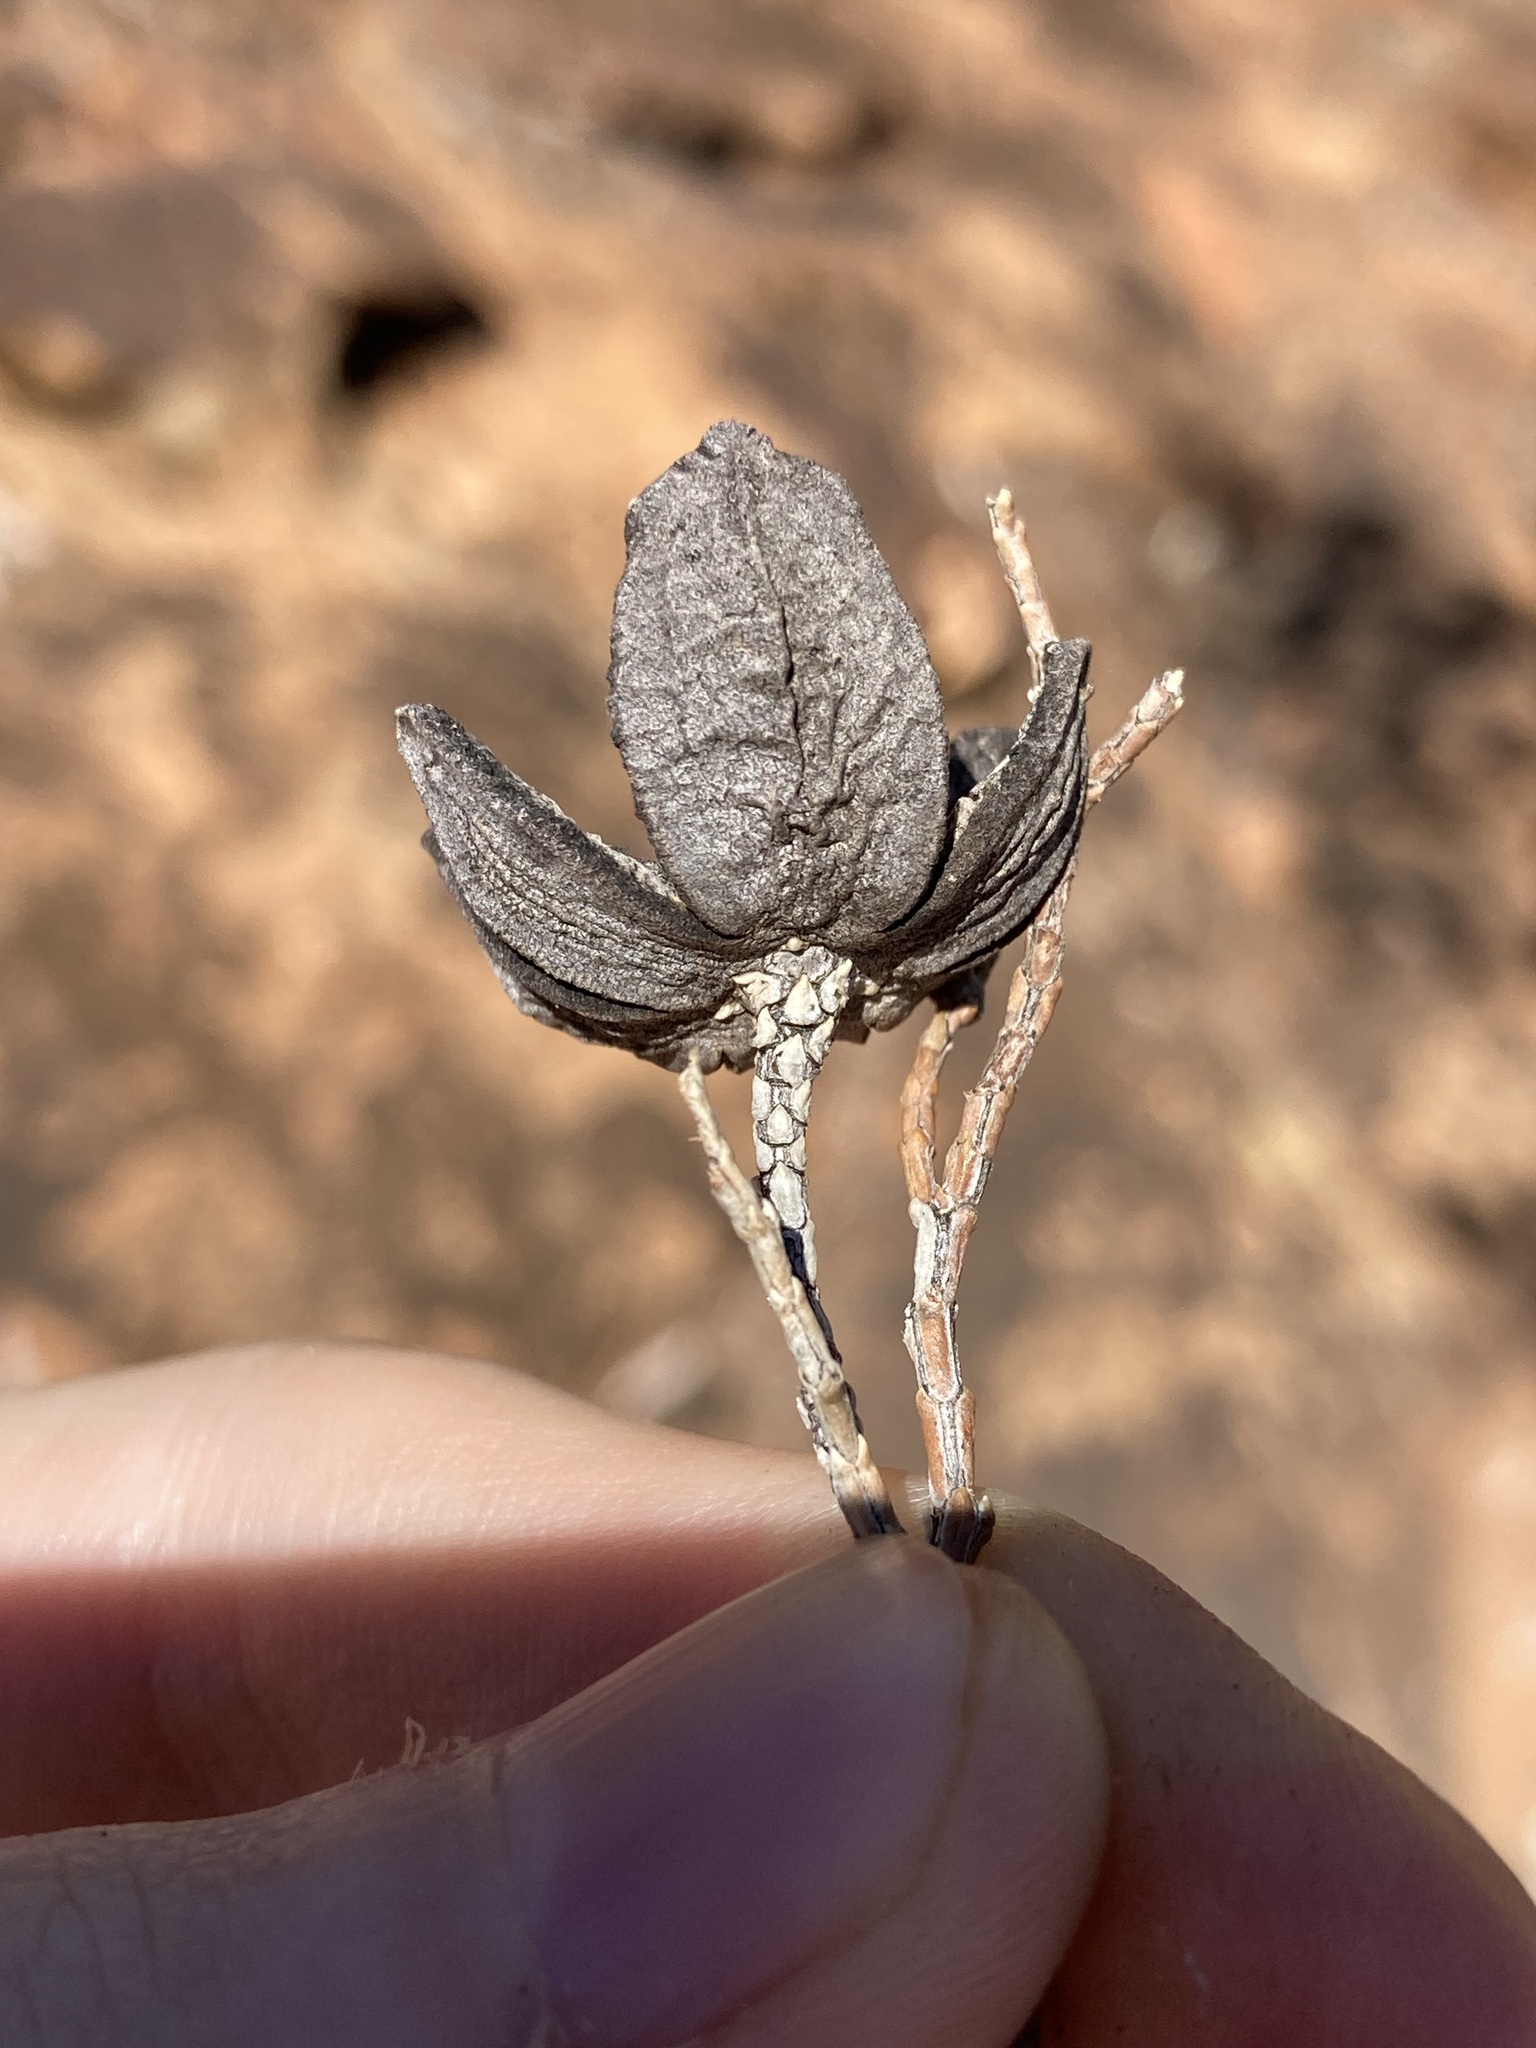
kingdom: Plantae
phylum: Tracheophyta
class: Pinopsida
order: Pinales
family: Cupressaceae
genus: Callitris
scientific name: Callitris columellaris
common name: White cypress-pine
